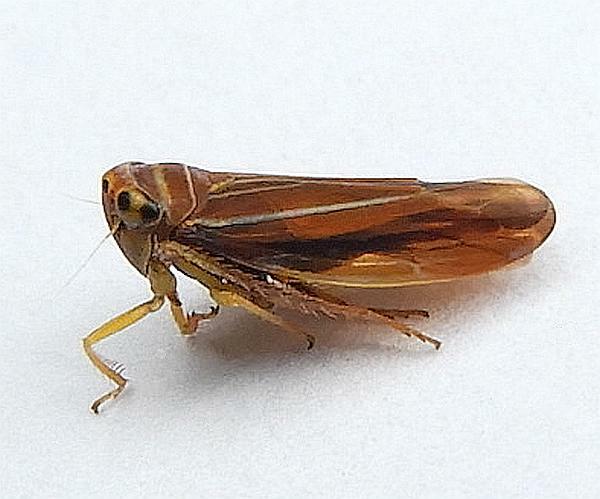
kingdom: Animalia
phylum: Arthropoda
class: Insecta
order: Hemiptera
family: Cicadellidae
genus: Idiodonus
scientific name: Idiodonus kennicotti
